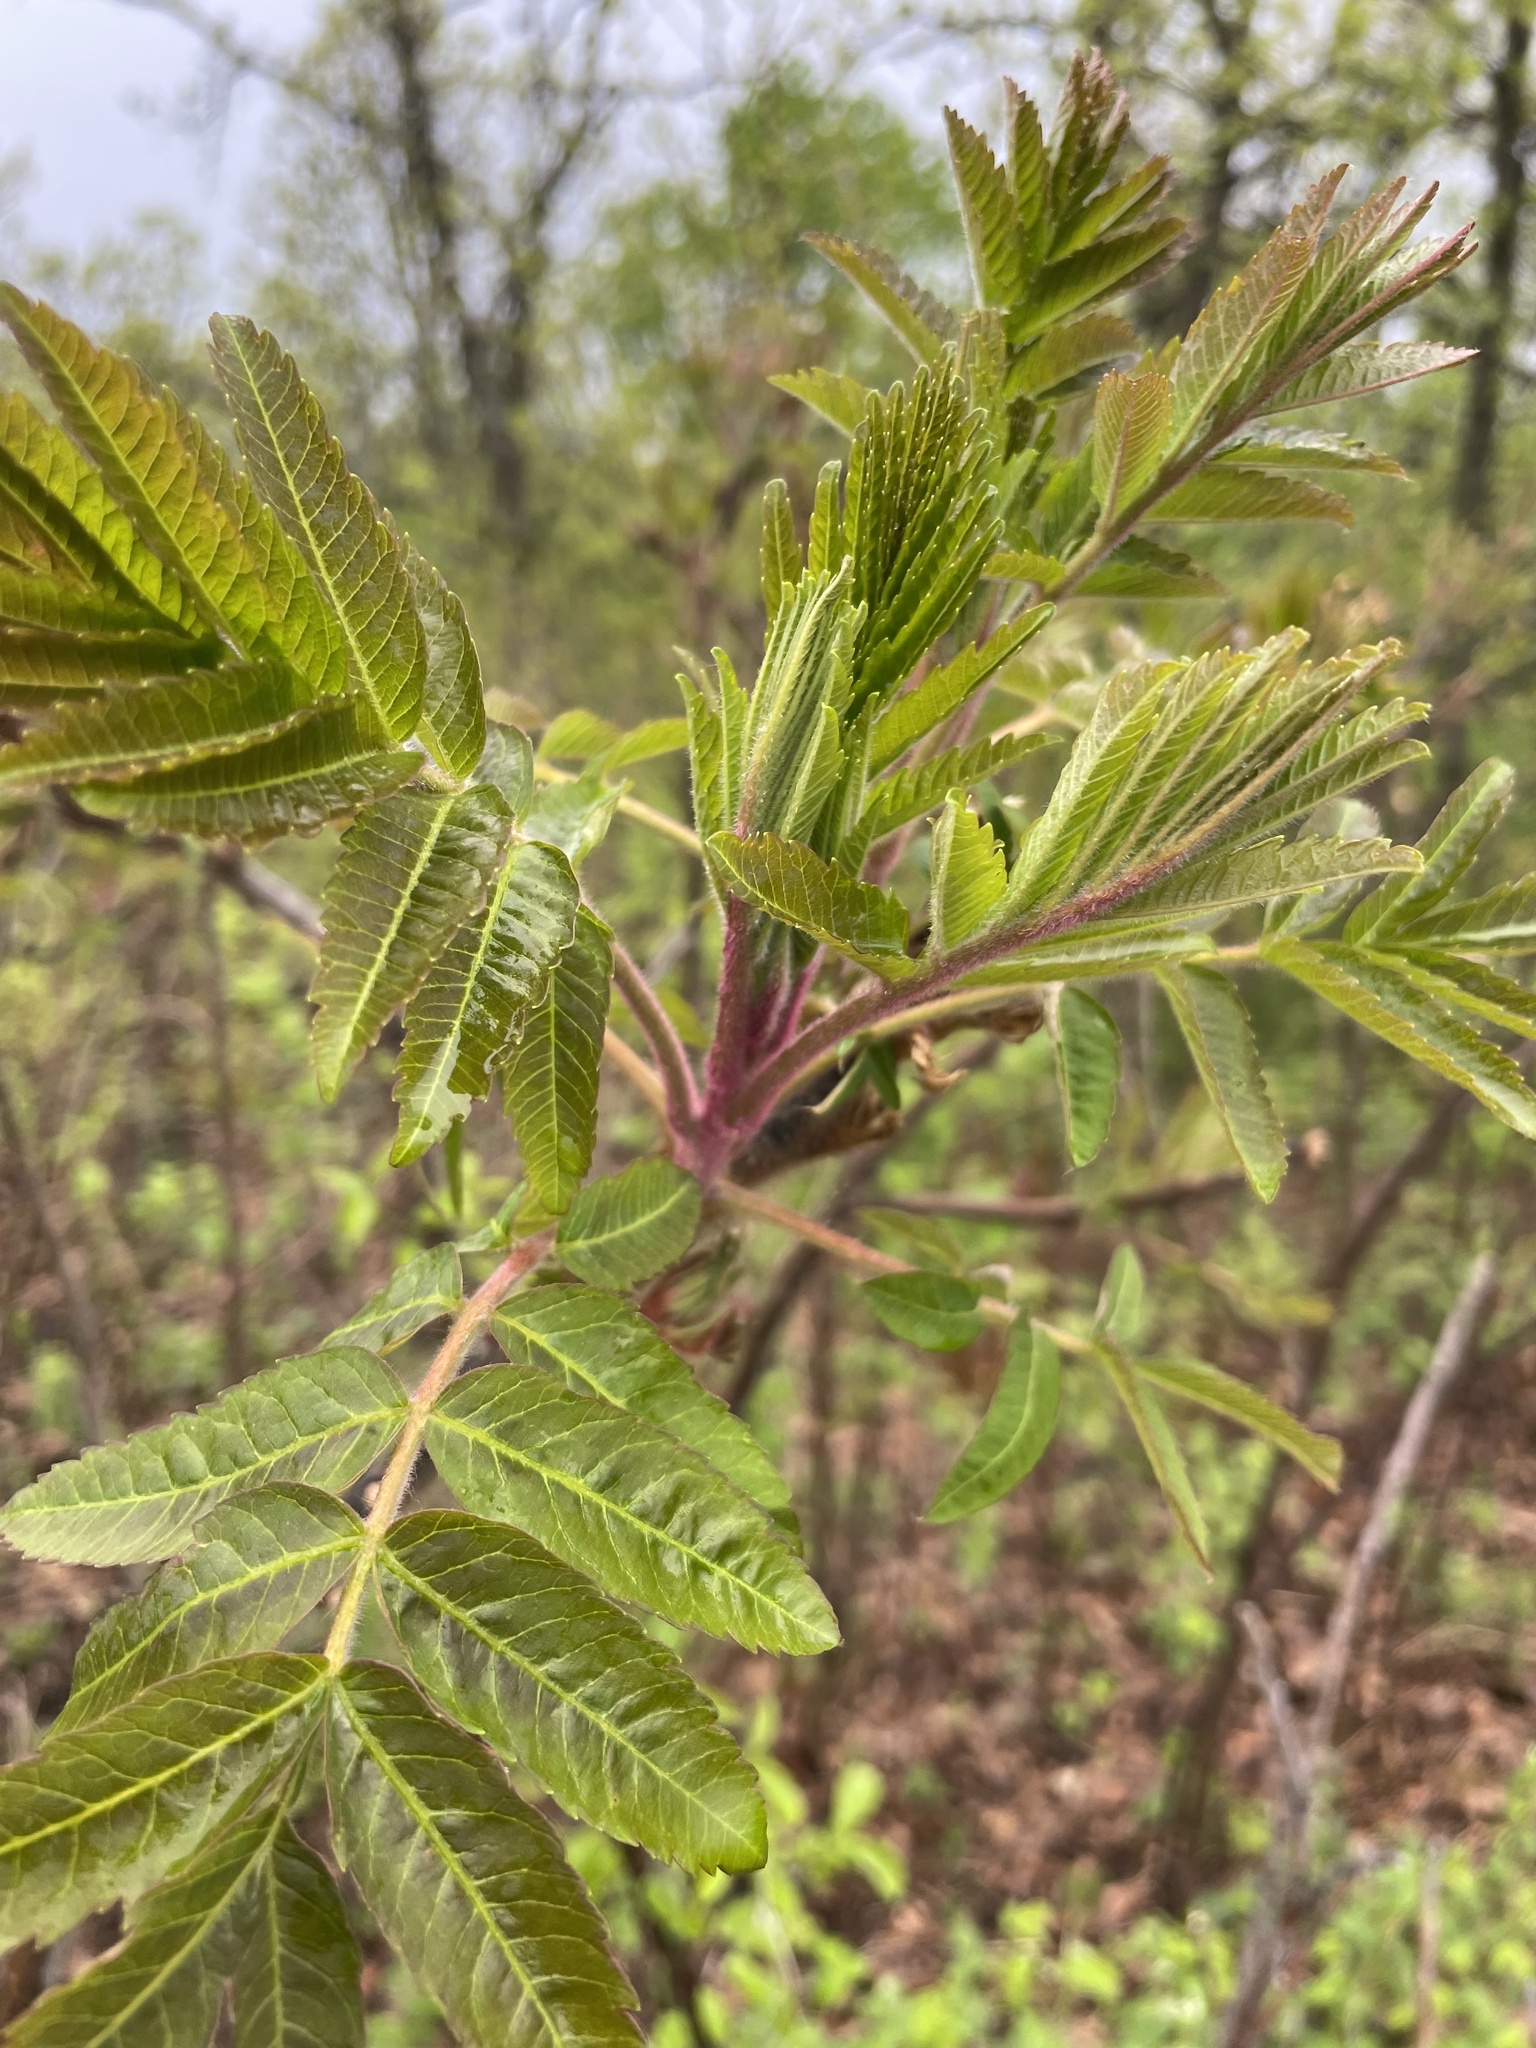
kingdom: Plantae
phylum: Tracheophyta
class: Magnoliopsida
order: Sapindales
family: Anacardiaceae
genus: Rhus
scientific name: Rhus typhina
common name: Staghorn sumac
